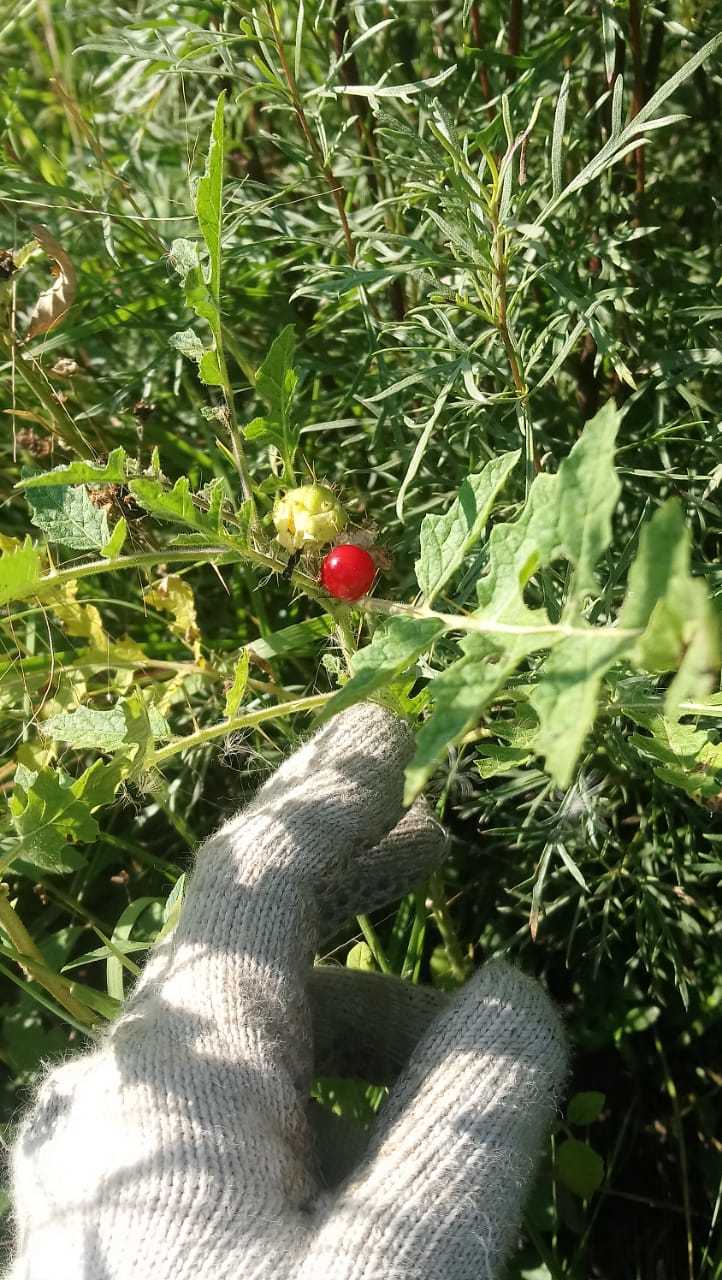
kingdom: Plantae
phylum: Tracheophyta
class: Magnoliopsida
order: Solanales
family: Solanaceae
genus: Solanum
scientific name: Solanum sisymbriifolium
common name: Red buffalo-bur
